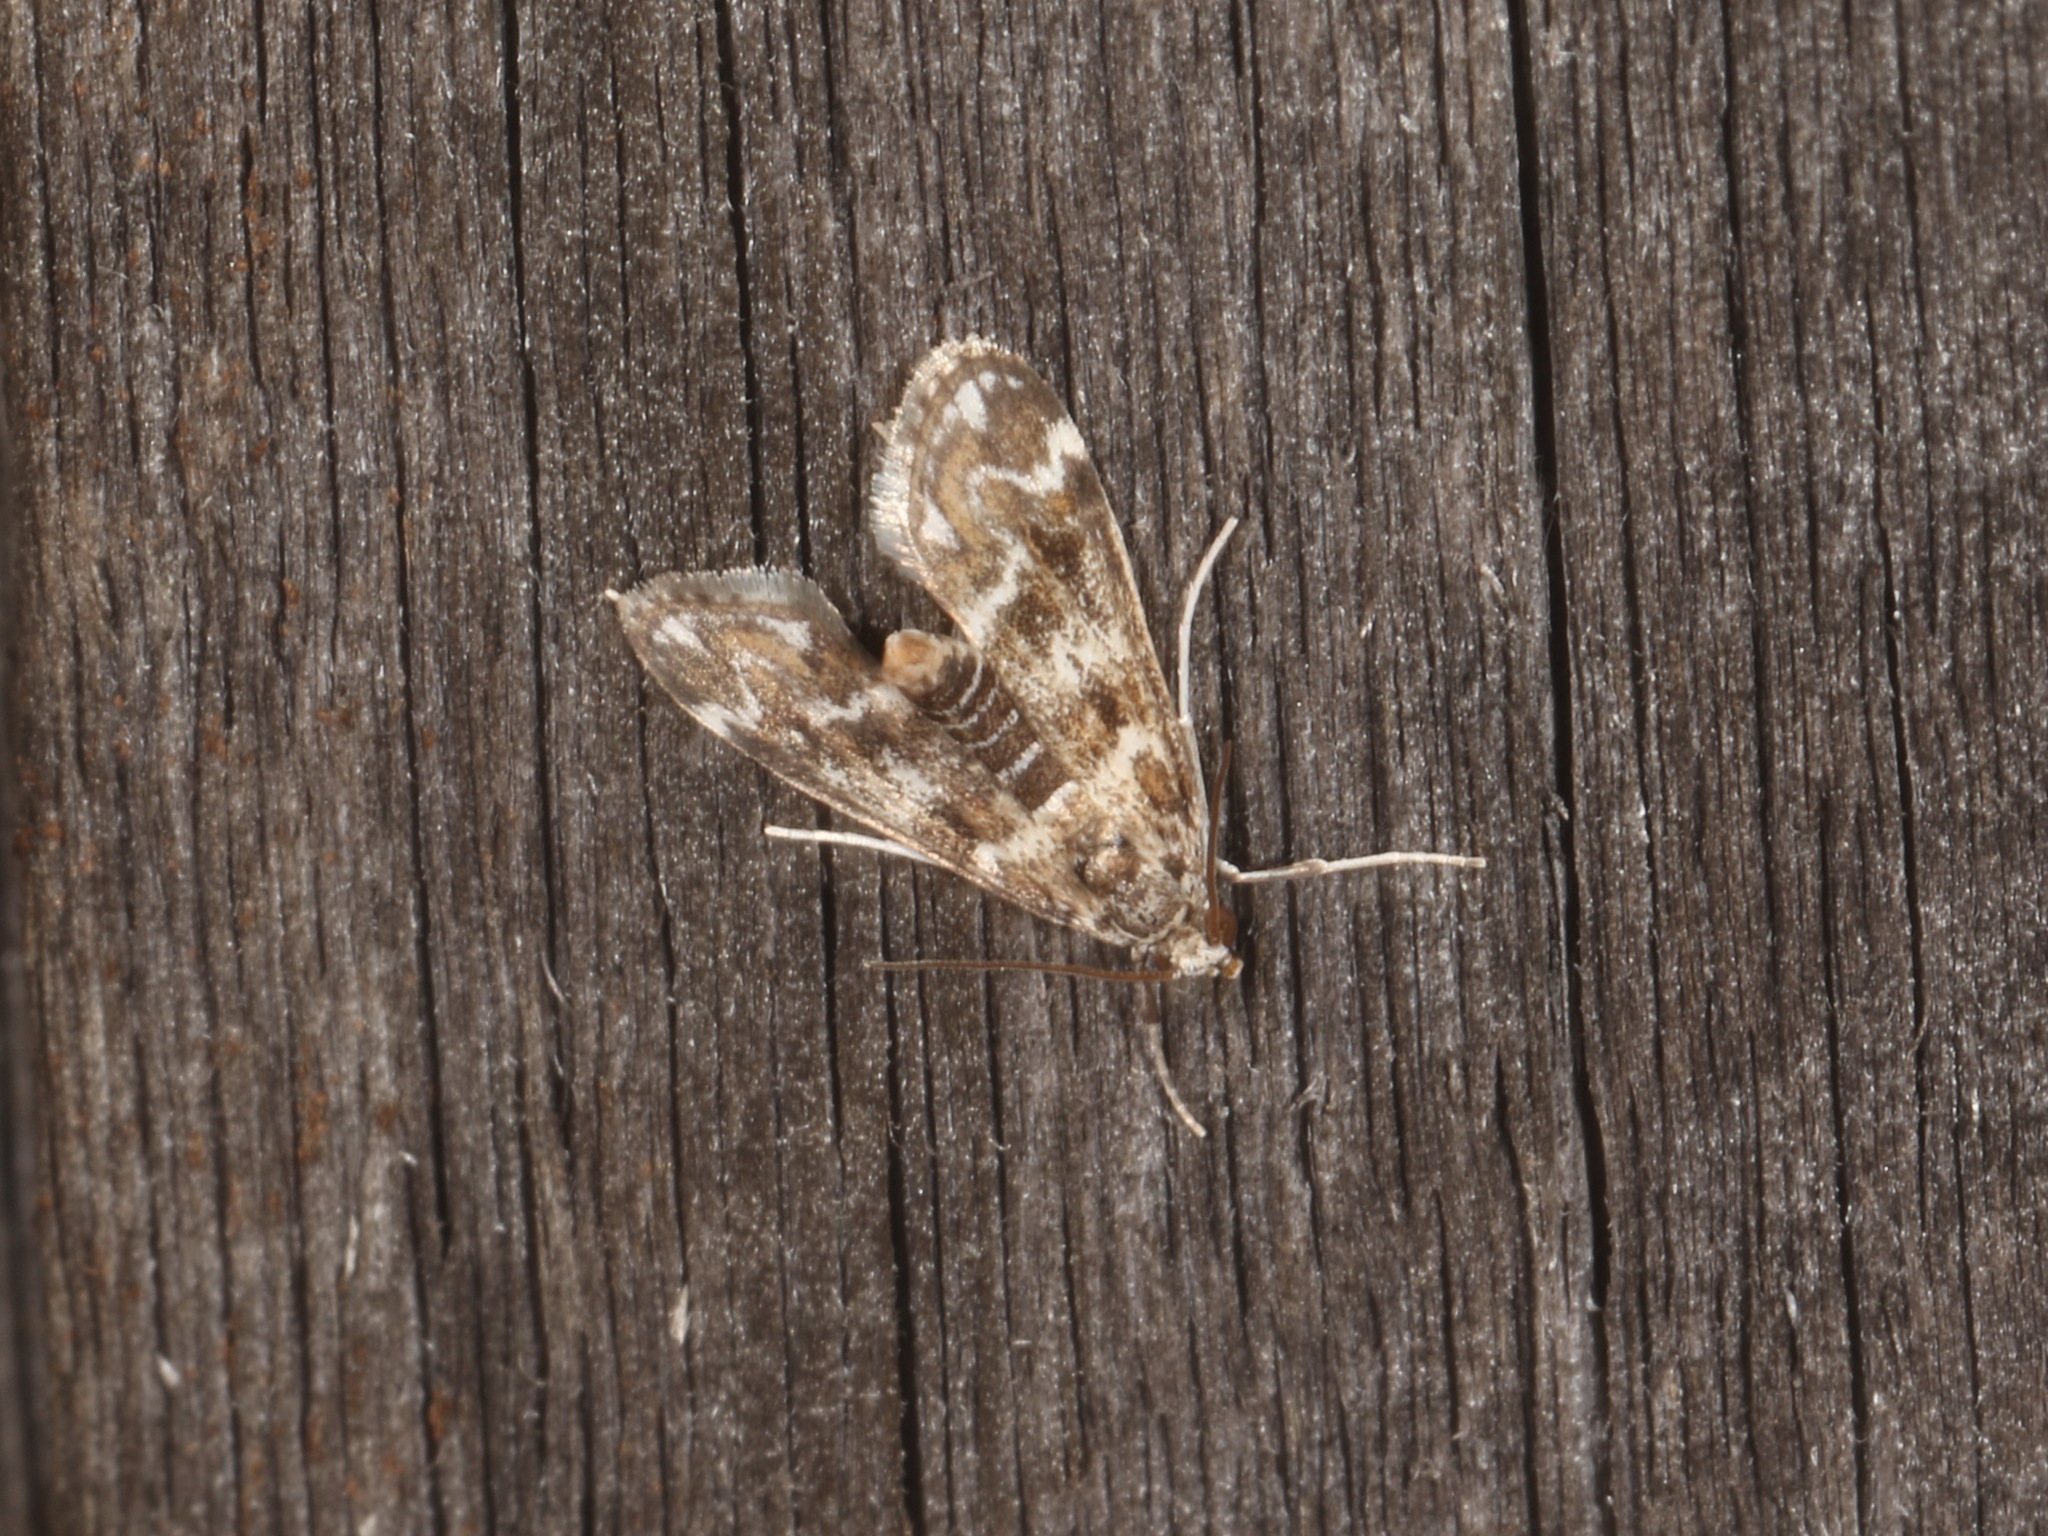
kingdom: Animalia
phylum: Arthropoda
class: Insecta
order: Lepidoptera
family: Crambidae
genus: Hygraula
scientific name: Hygraula nitens
